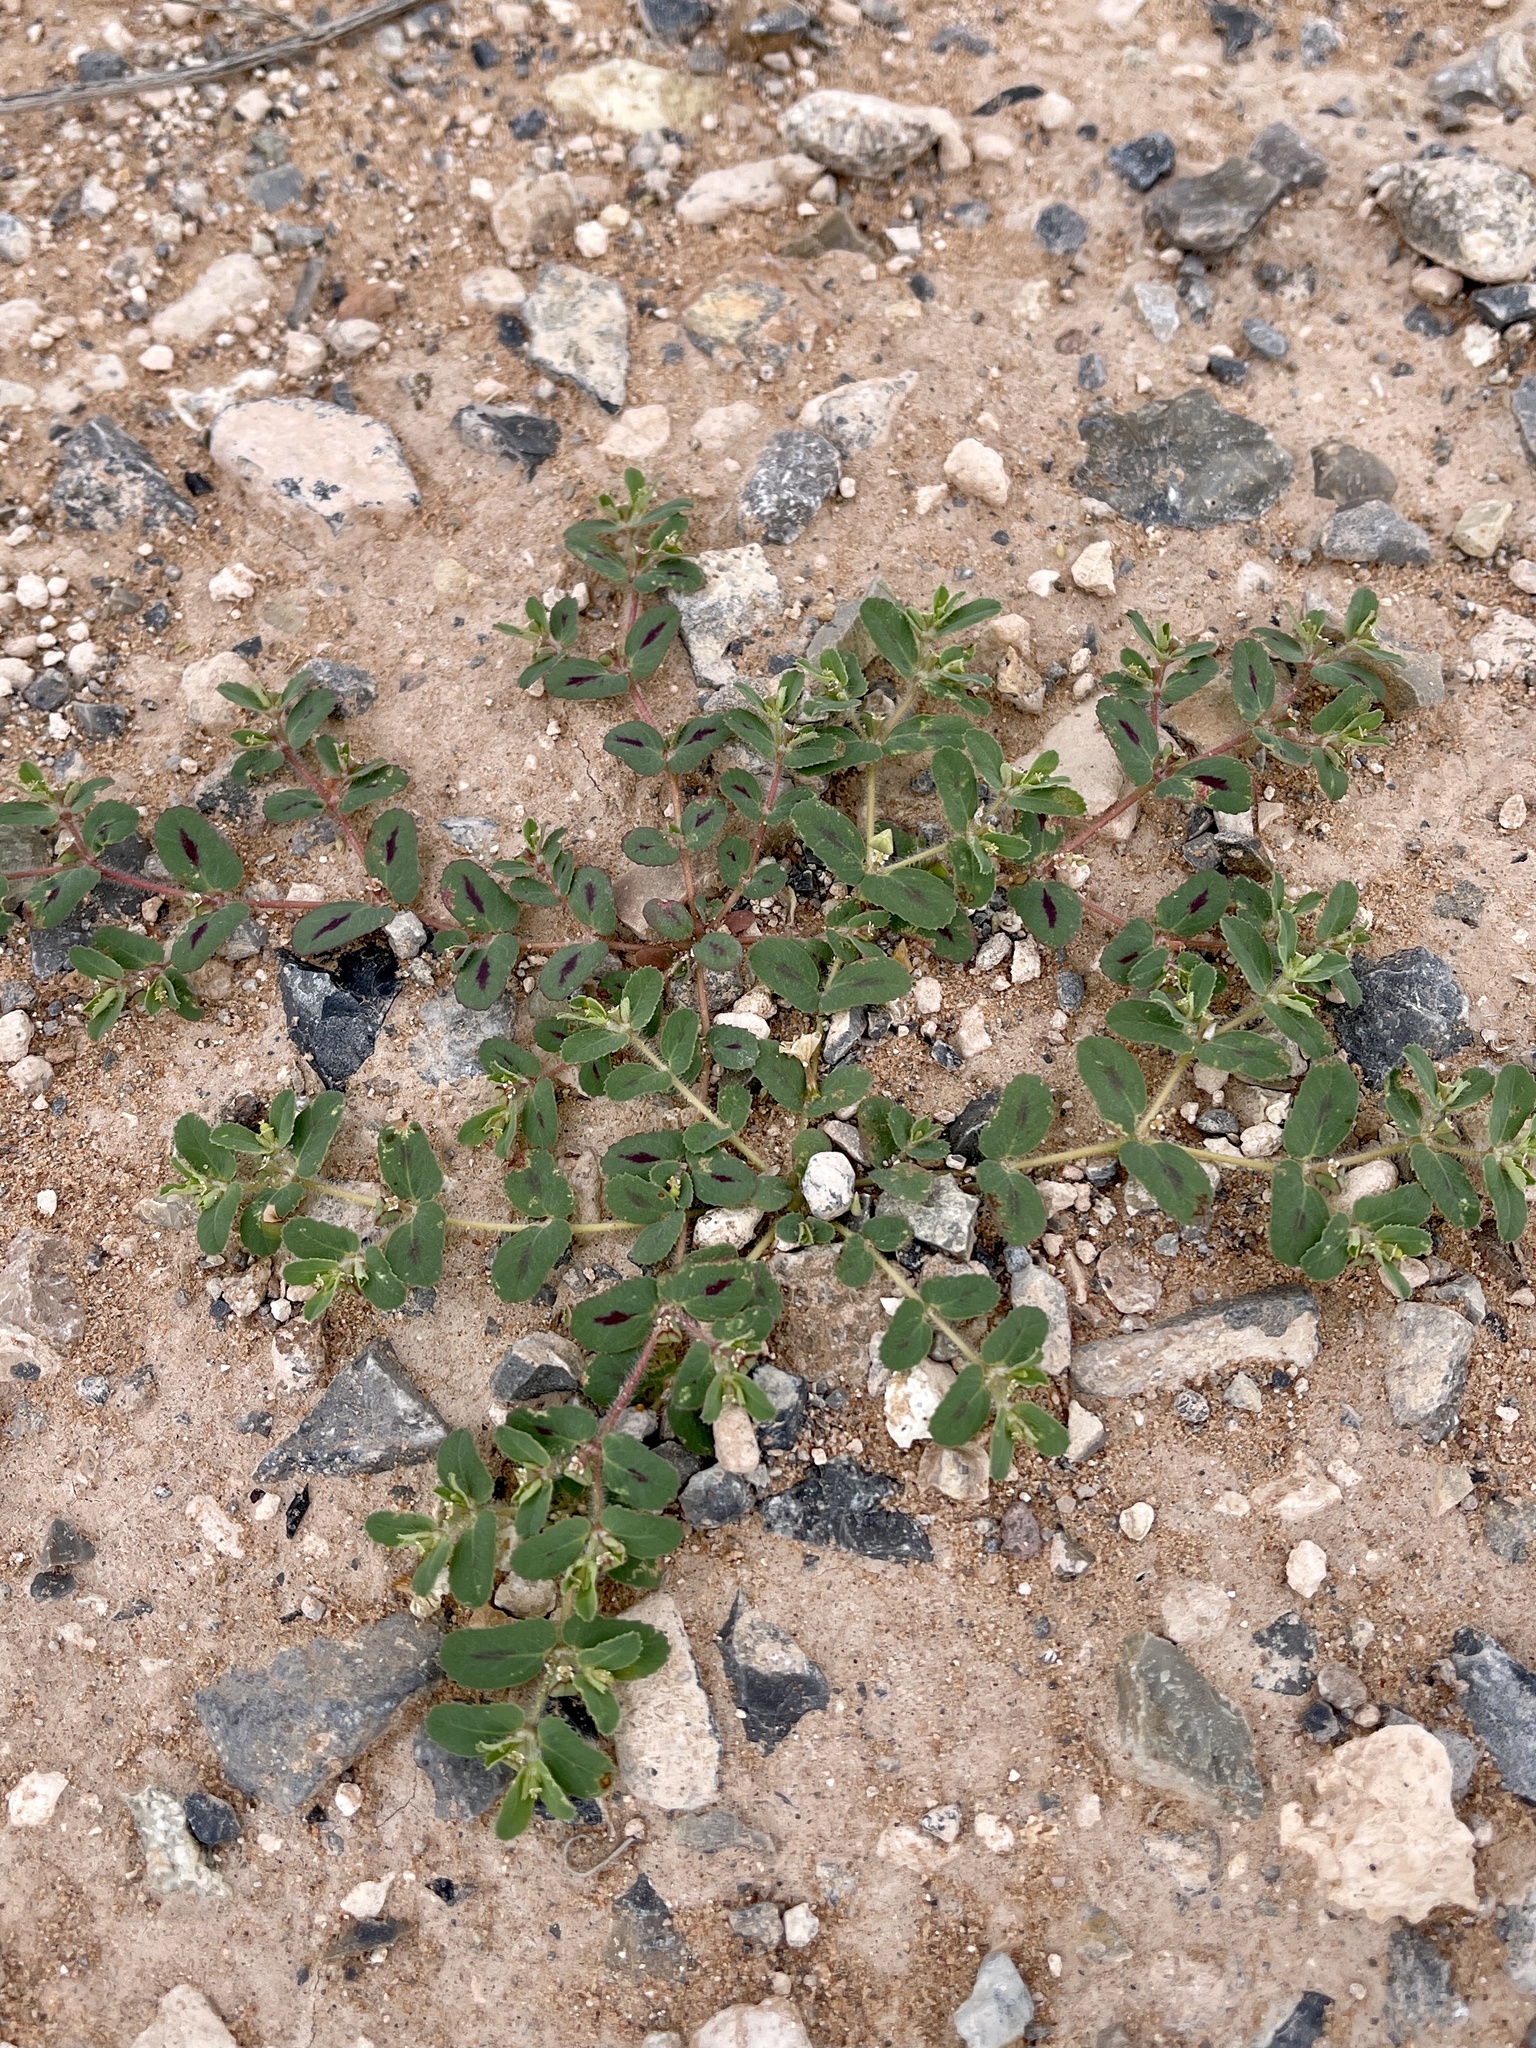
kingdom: Plantae
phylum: Tracheophyta
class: Magnoliopsida
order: Malpighiales
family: Euphorbiaceae
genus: Euphorbia
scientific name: Euphorbia serrula
